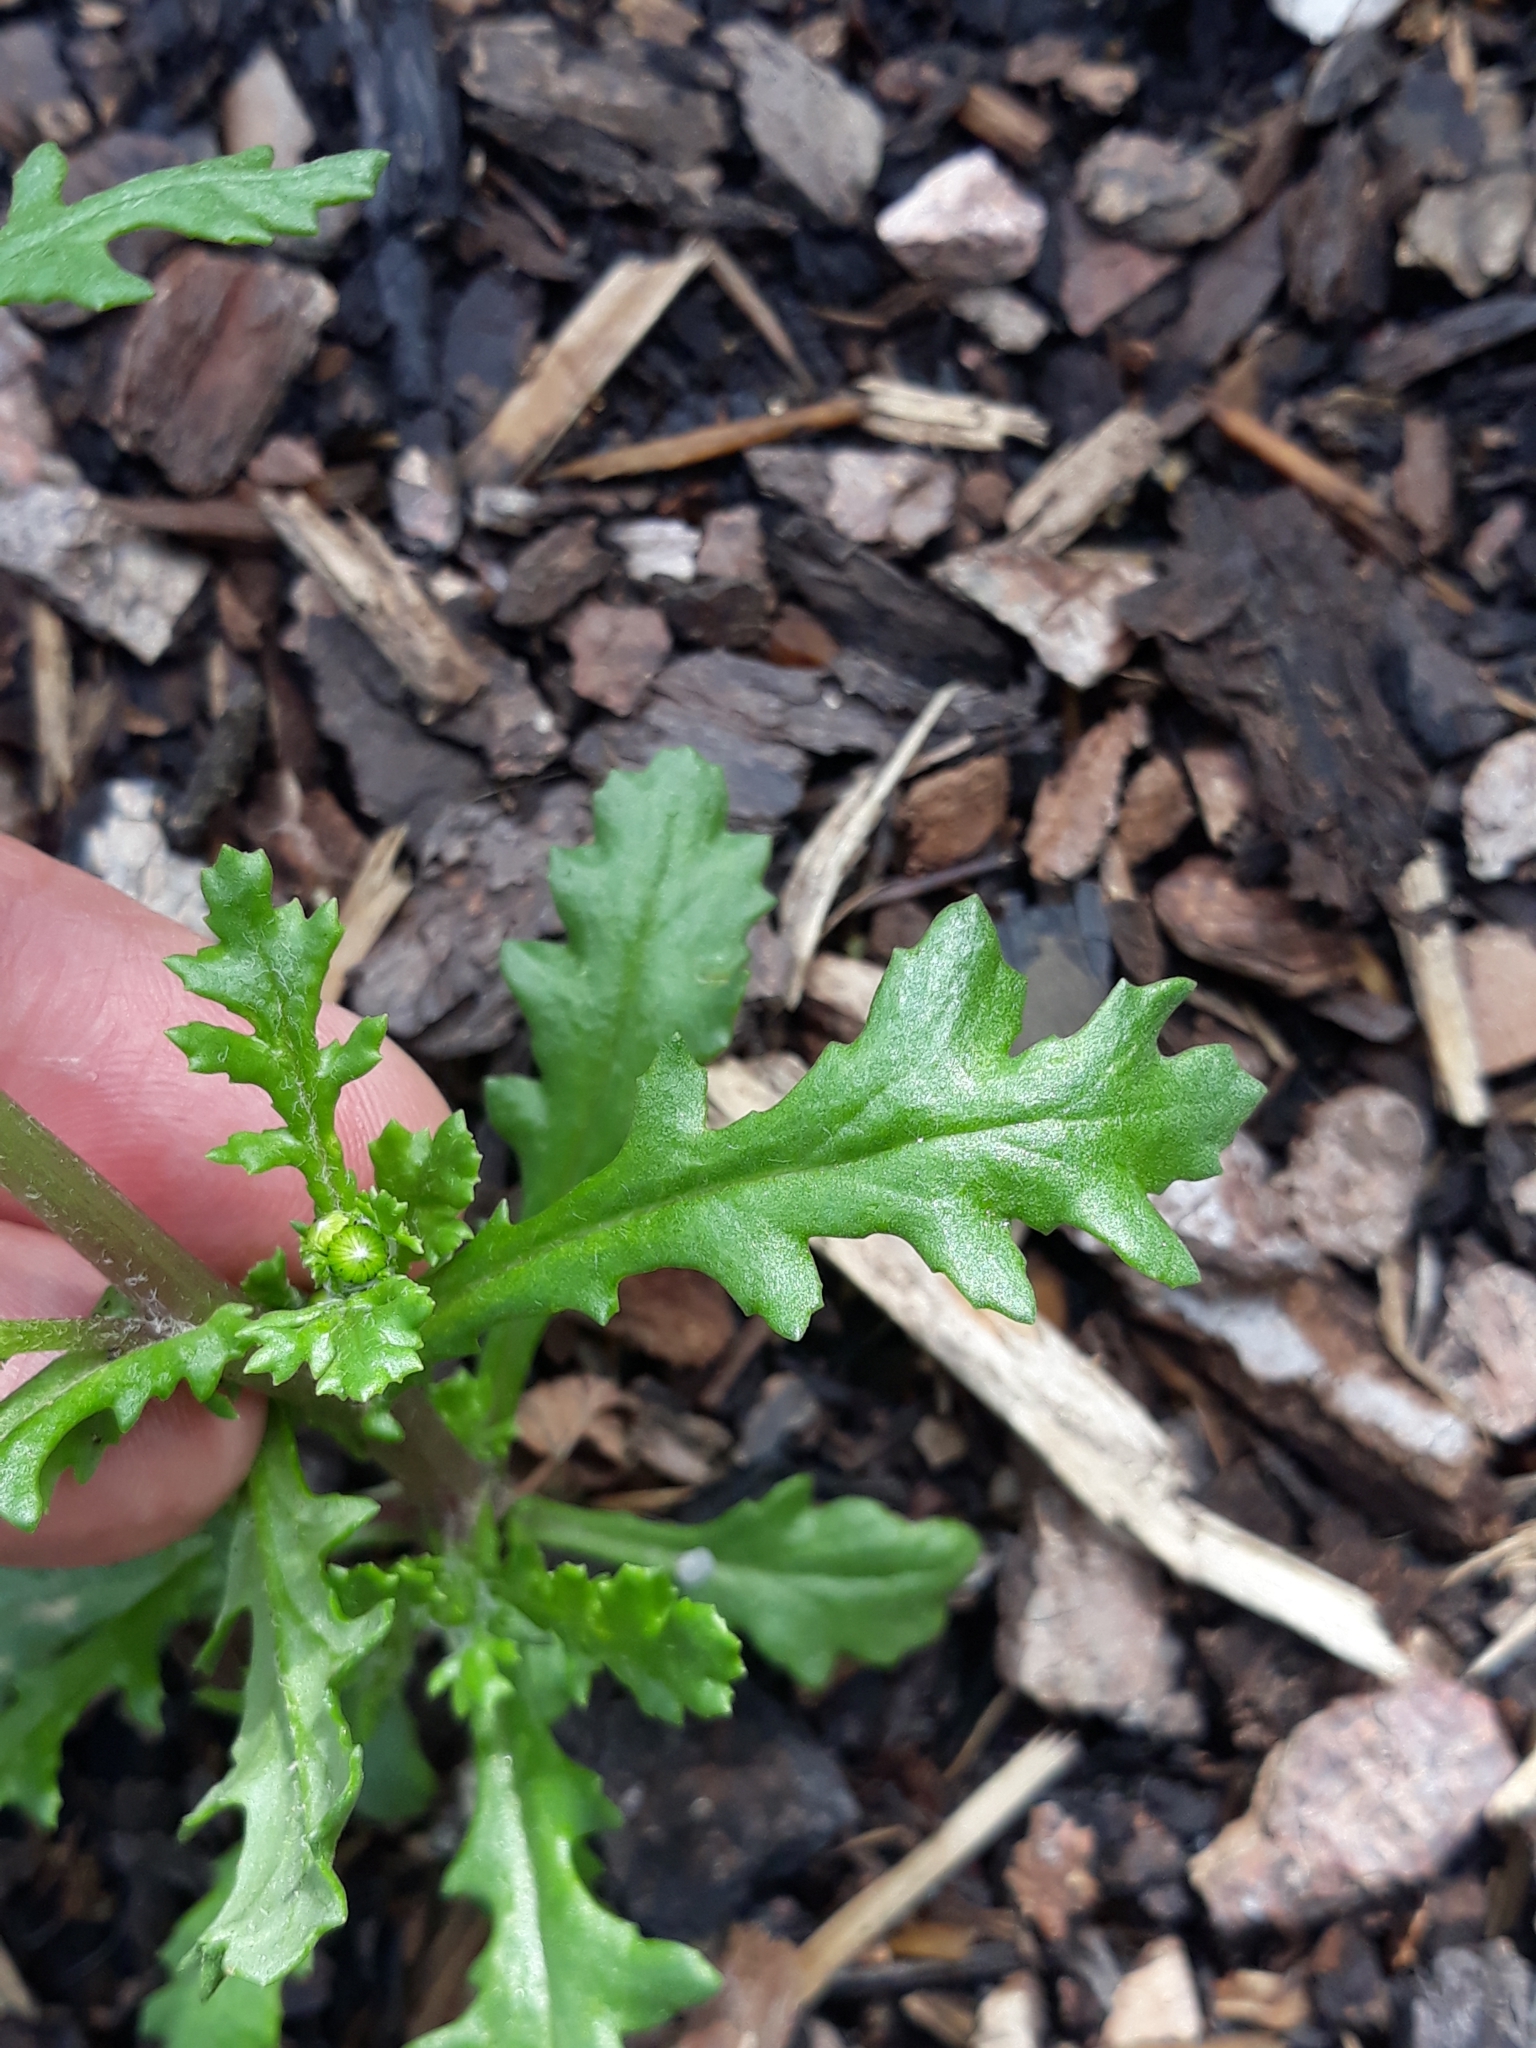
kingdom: Plantae
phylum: Tracheophyta
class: Magnoliopsida
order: Asterales
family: Asteraceae
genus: Senecio
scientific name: Senecio vulgaris
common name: Old-man-in-the-spring
